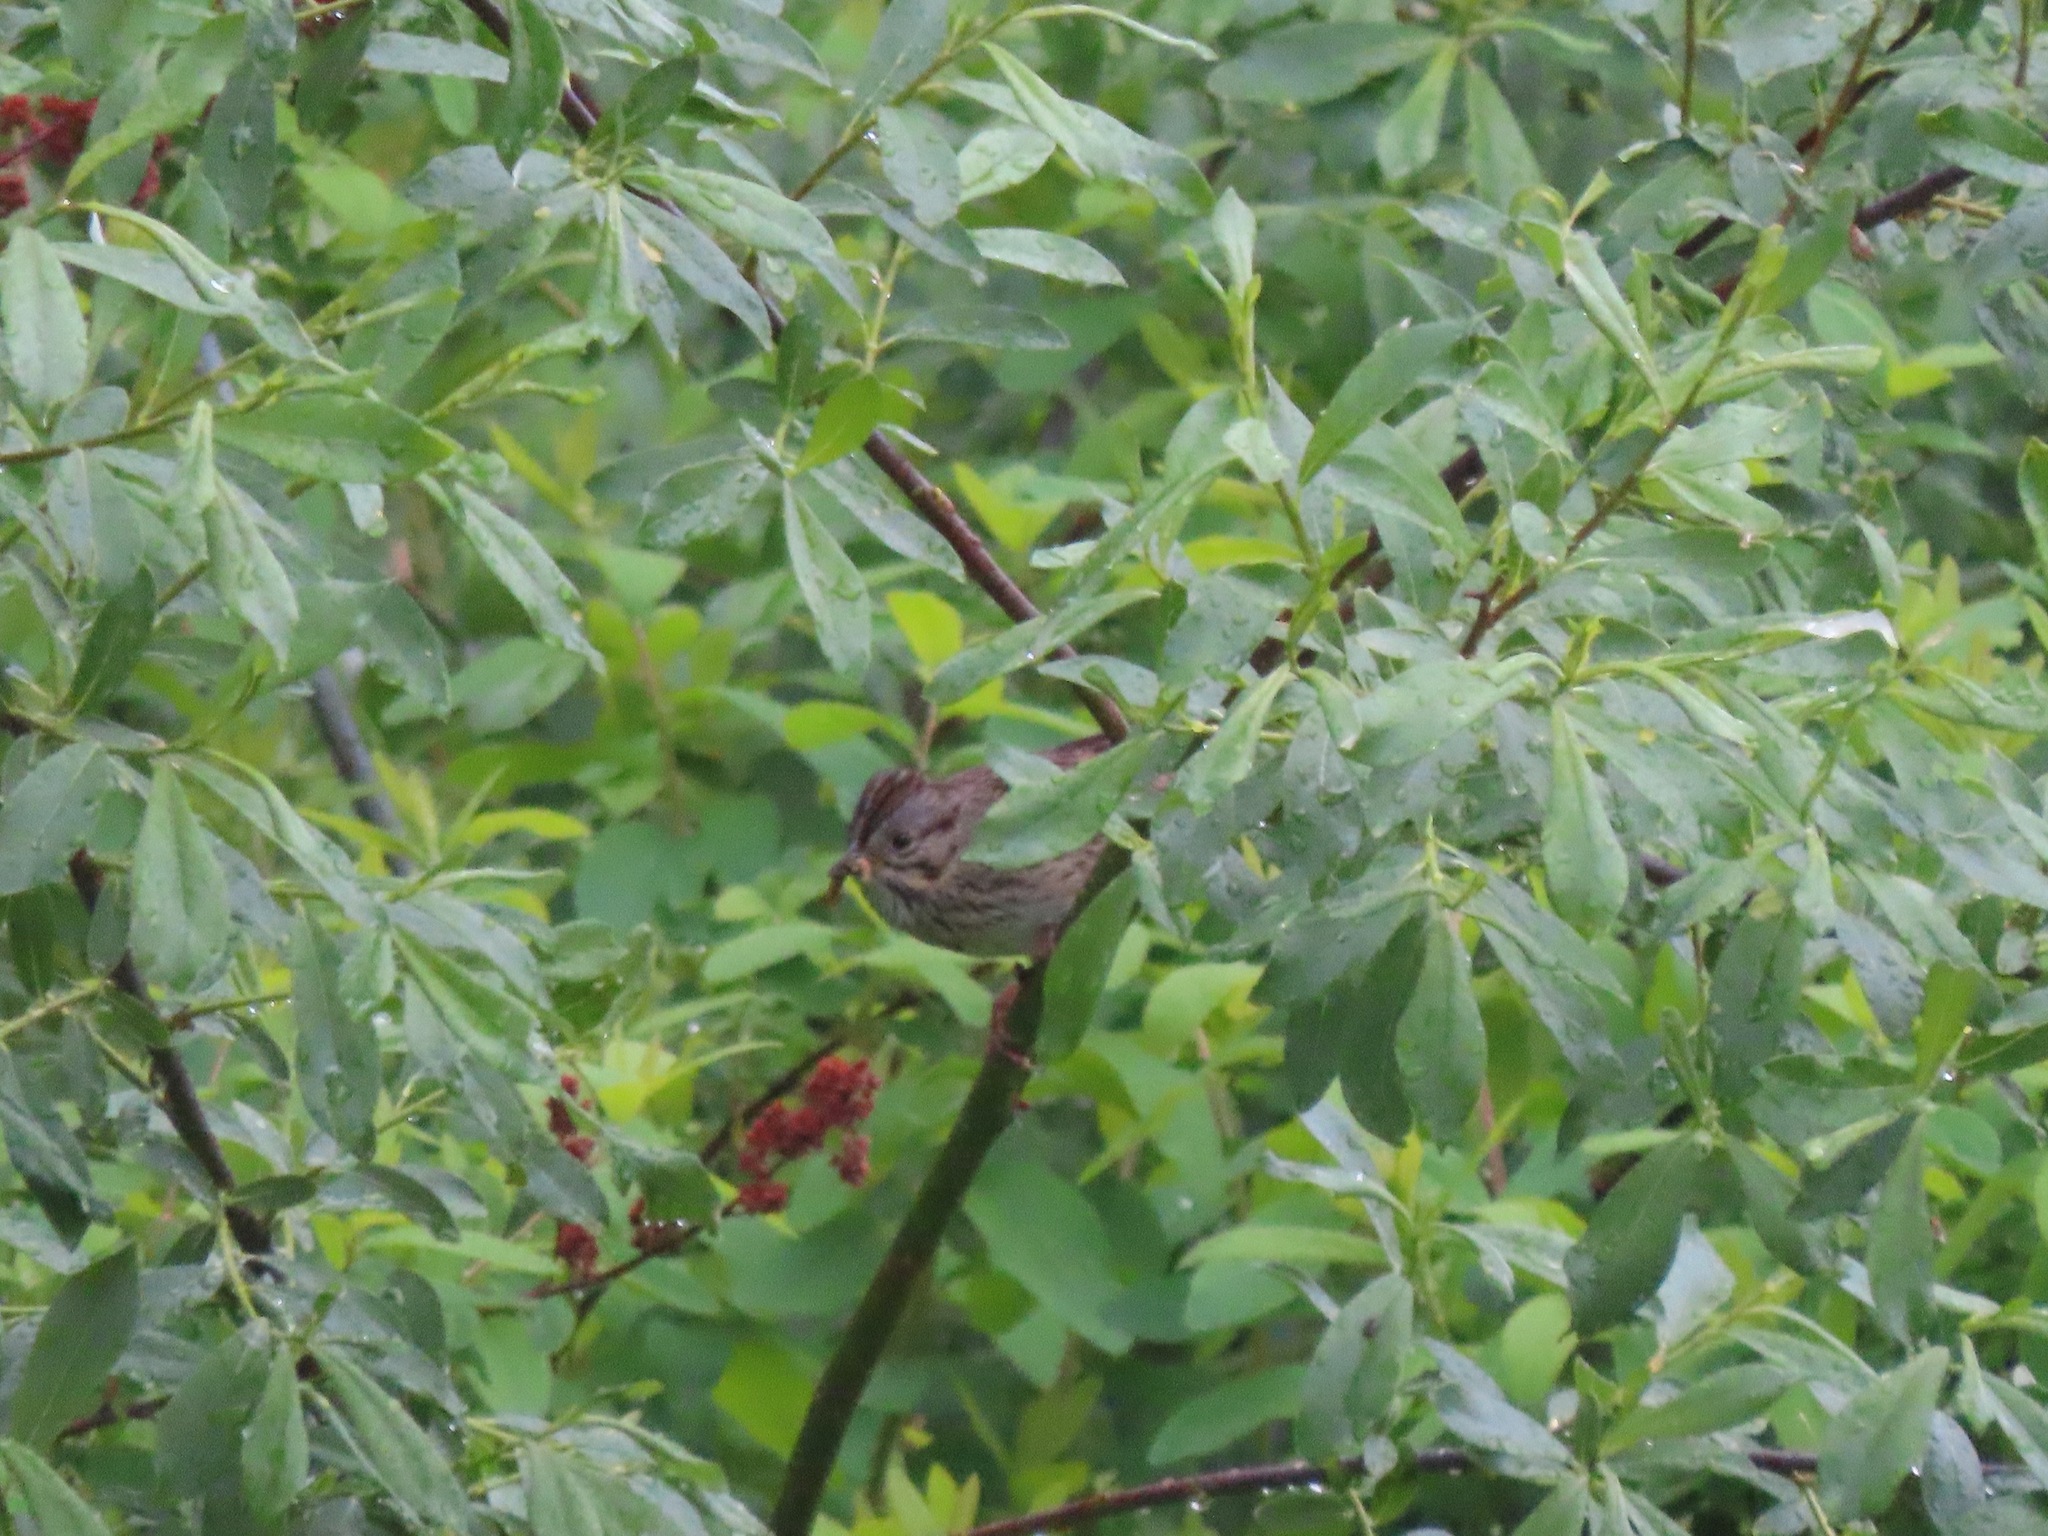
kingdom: Animalia
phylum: Chordata
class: Aves
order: Passeriformes
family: Passerellidae
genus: Melospiza
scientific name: Melospiza lincolnii
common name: Lincoln's sparrow
